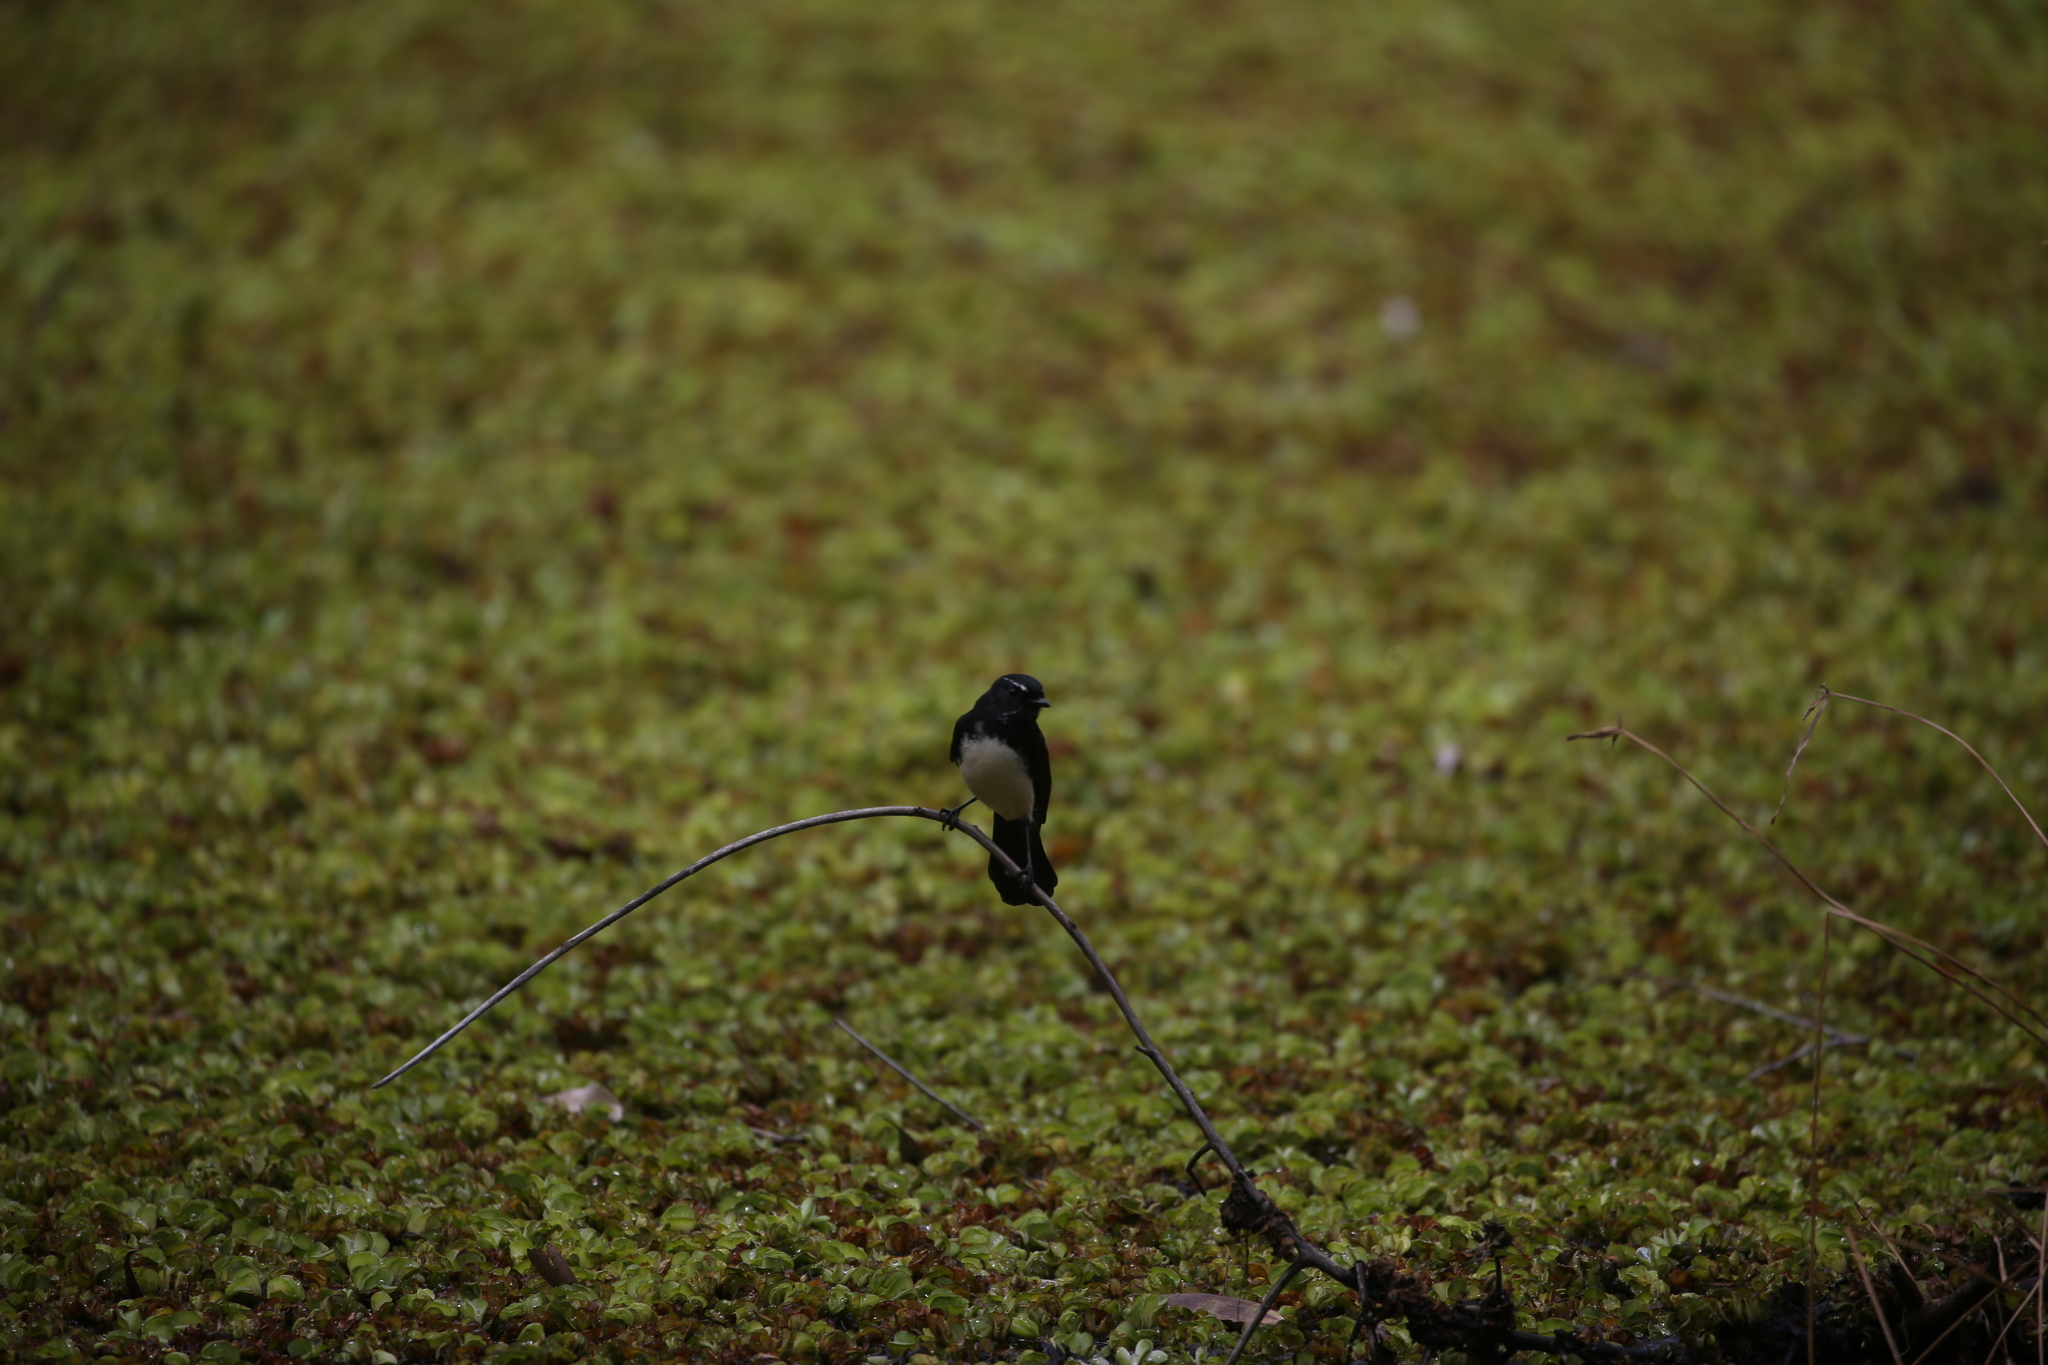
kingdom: Animalia
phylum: Chordata
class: Aves
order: Passeriformes
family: Rhipiduridae
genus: Rhipidura
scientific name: Rhipidura leucophrys
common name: Willie wagtail
